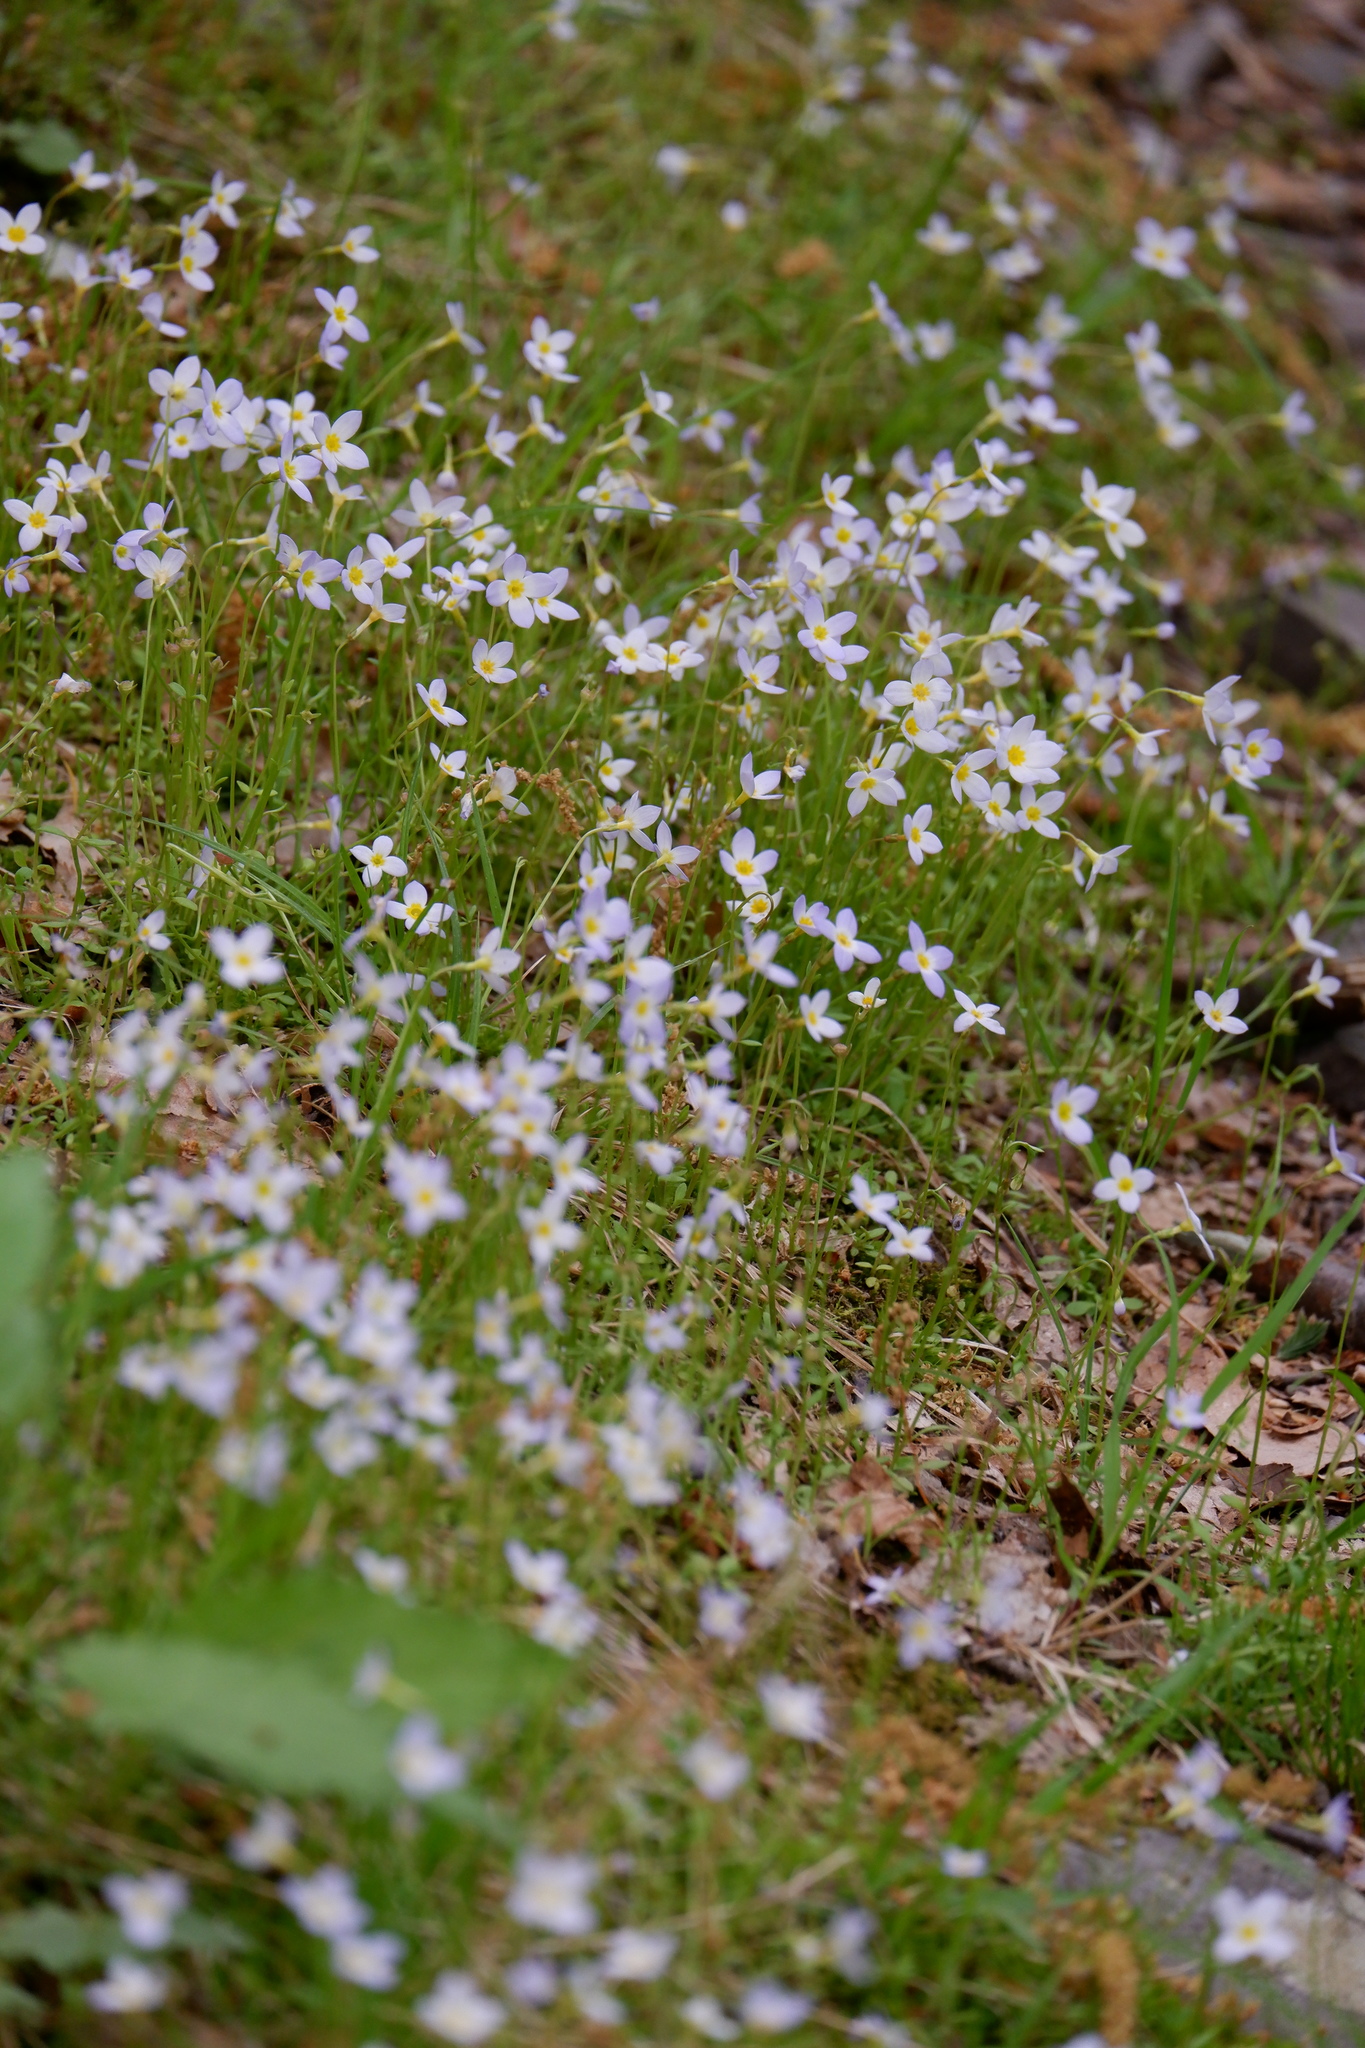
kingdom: Plantae
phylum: Tracheophyta
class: Magnoliopsida
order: Gentianales
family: Rubiaceae
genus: Houstonia
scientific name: Houstonia caerulea
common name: Bluets
